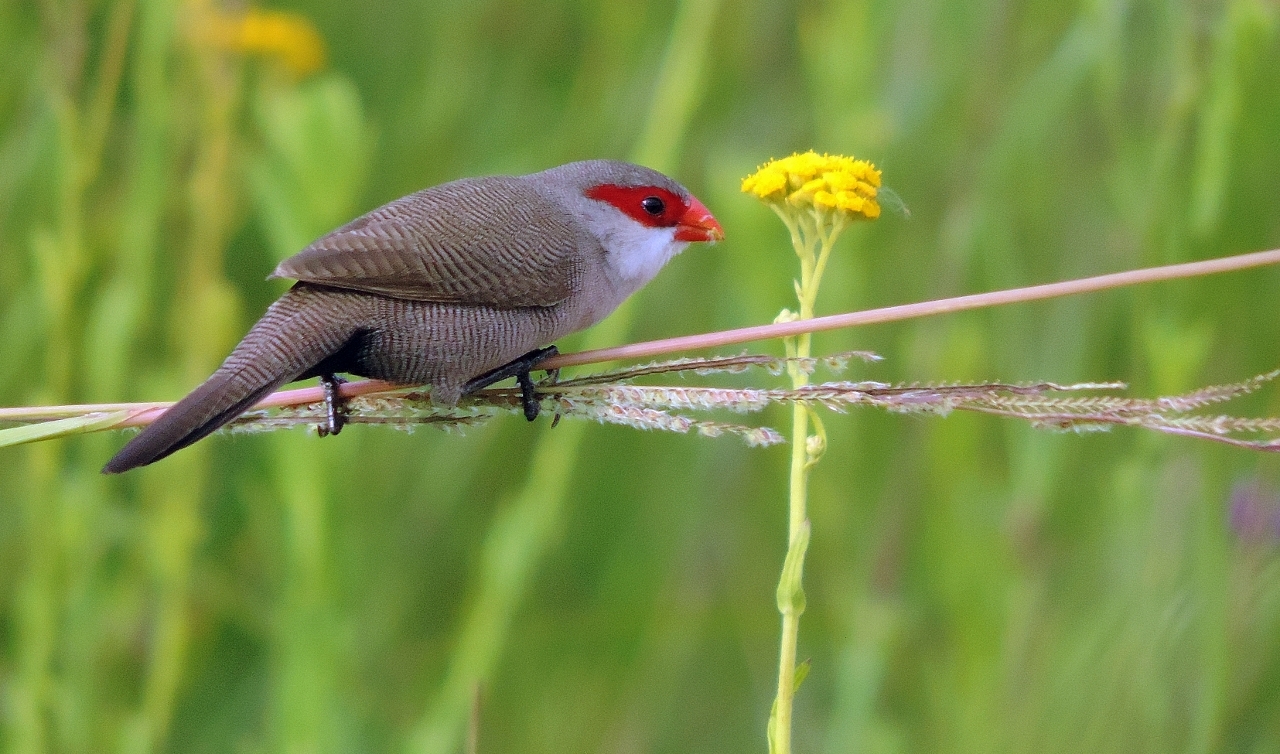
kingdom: Animalia
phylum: Chordata
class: Aves
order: Passeriformes
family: Estrildidae
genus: Estrilda
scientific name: Estrilda astrild
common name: Common waxbill
